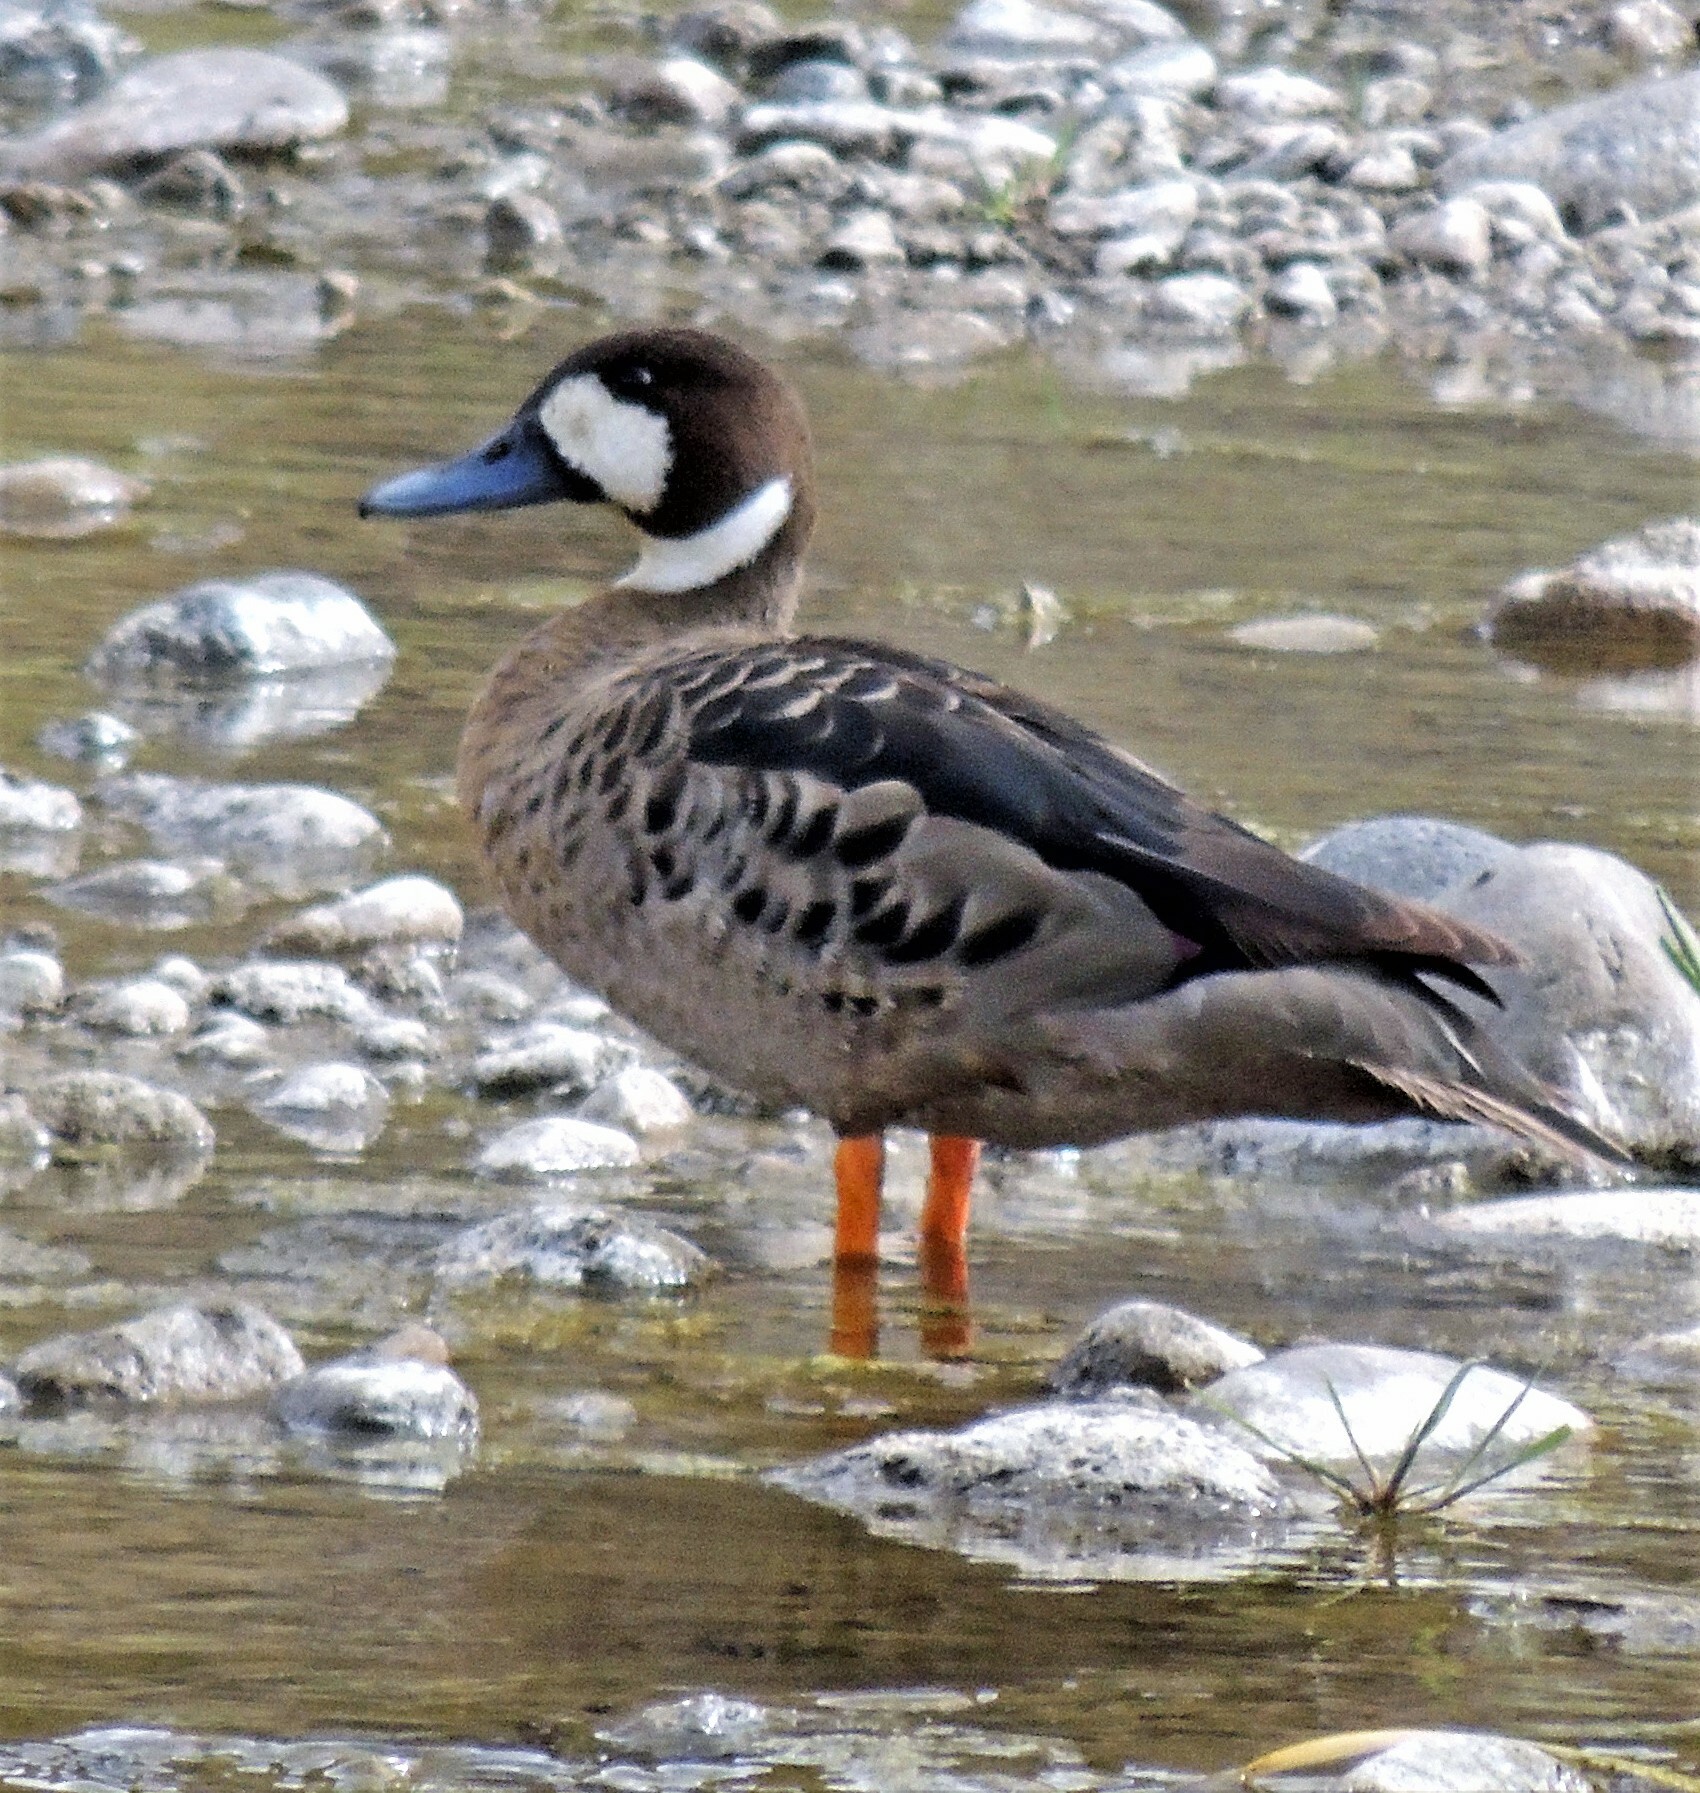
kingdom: Animalia
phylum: Chordata
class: Aves
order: Anseriformes
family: Anatidae
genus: Speculanas
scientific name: Speculanas specularis
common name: Bronze-winged duck
